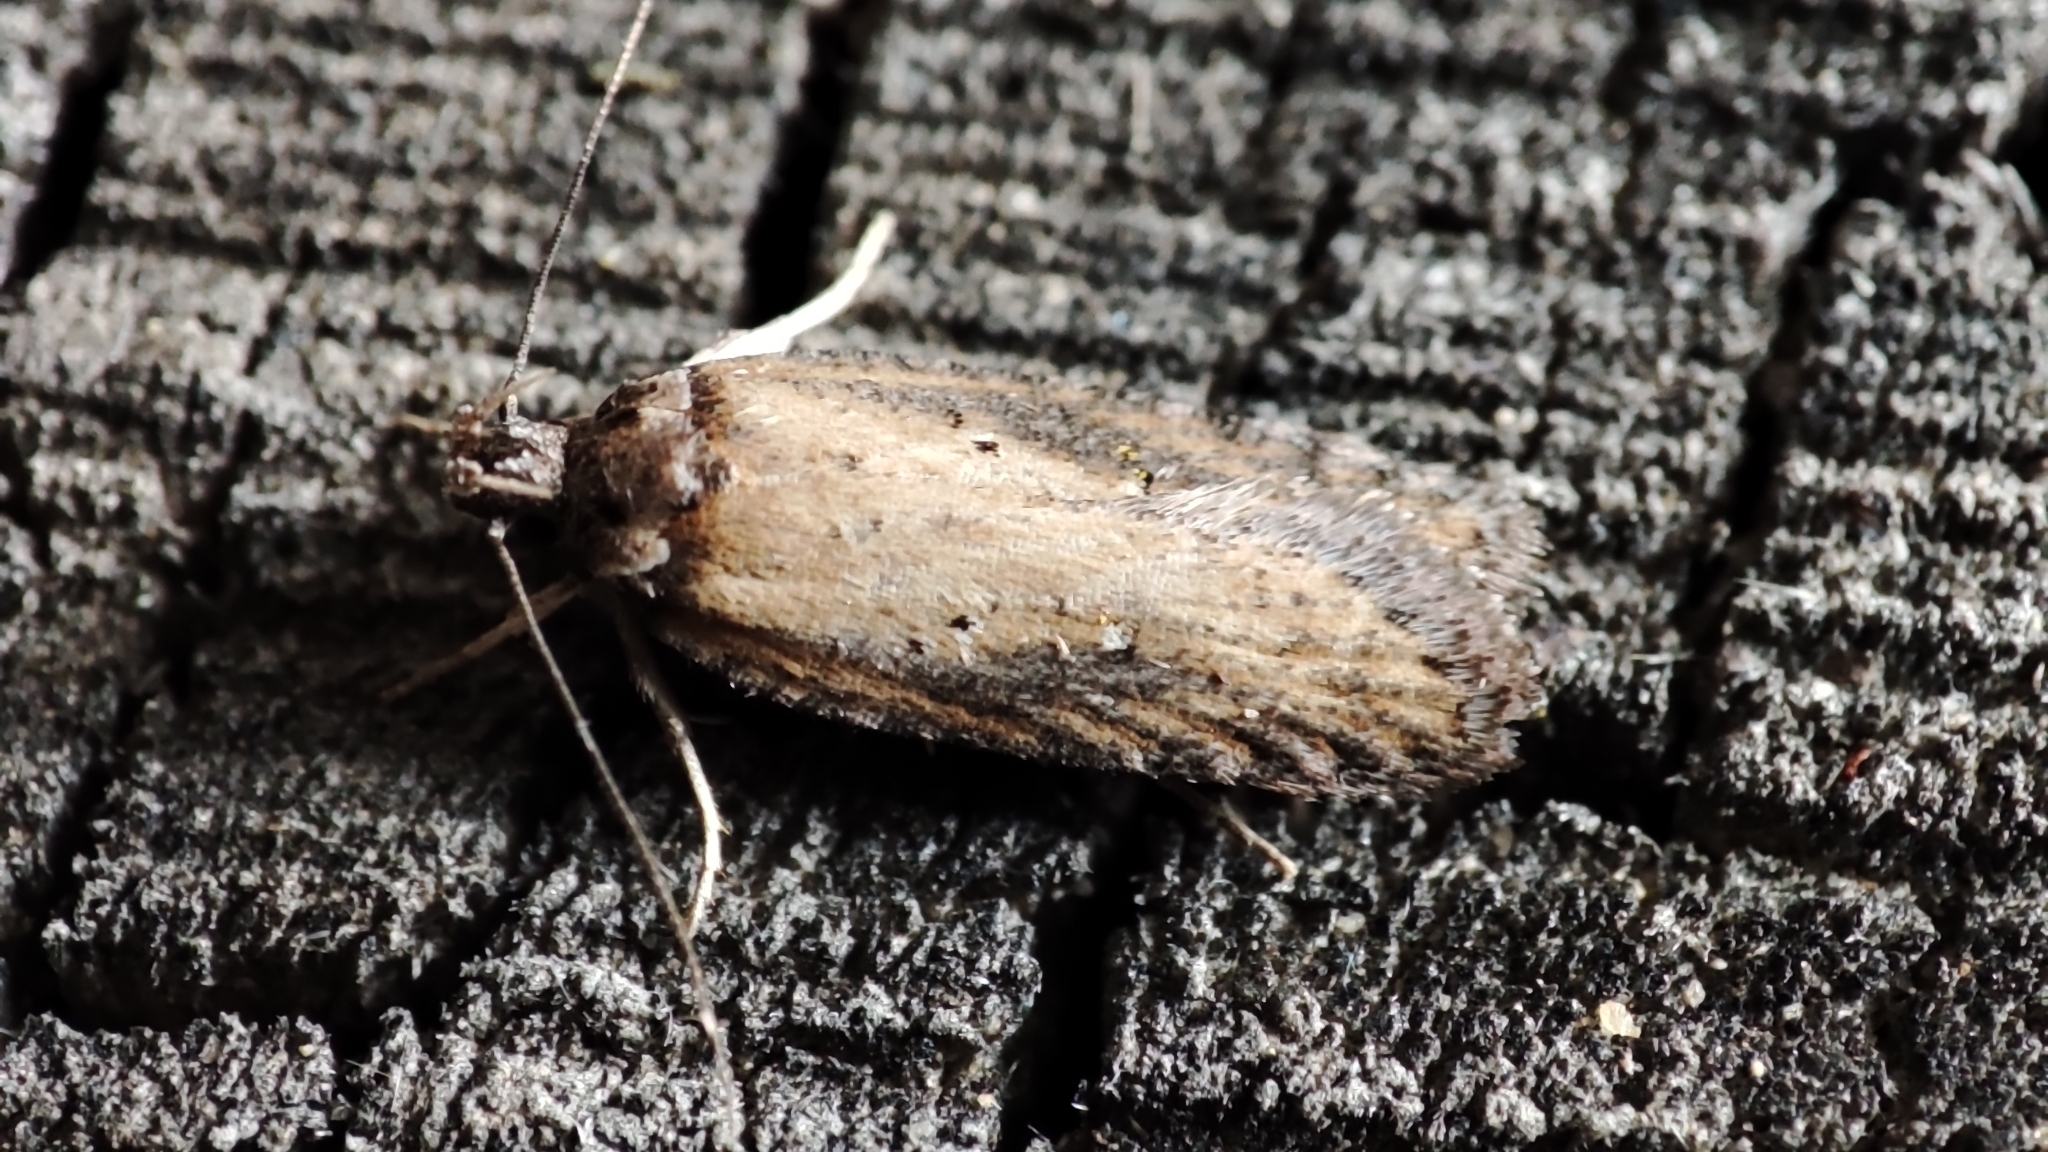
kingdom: Animalia
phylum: Arthropoda
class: Insecta
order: Lepidoptera
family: Depressariidae
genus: Exaeretia
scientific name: Exaeretia praeustella
